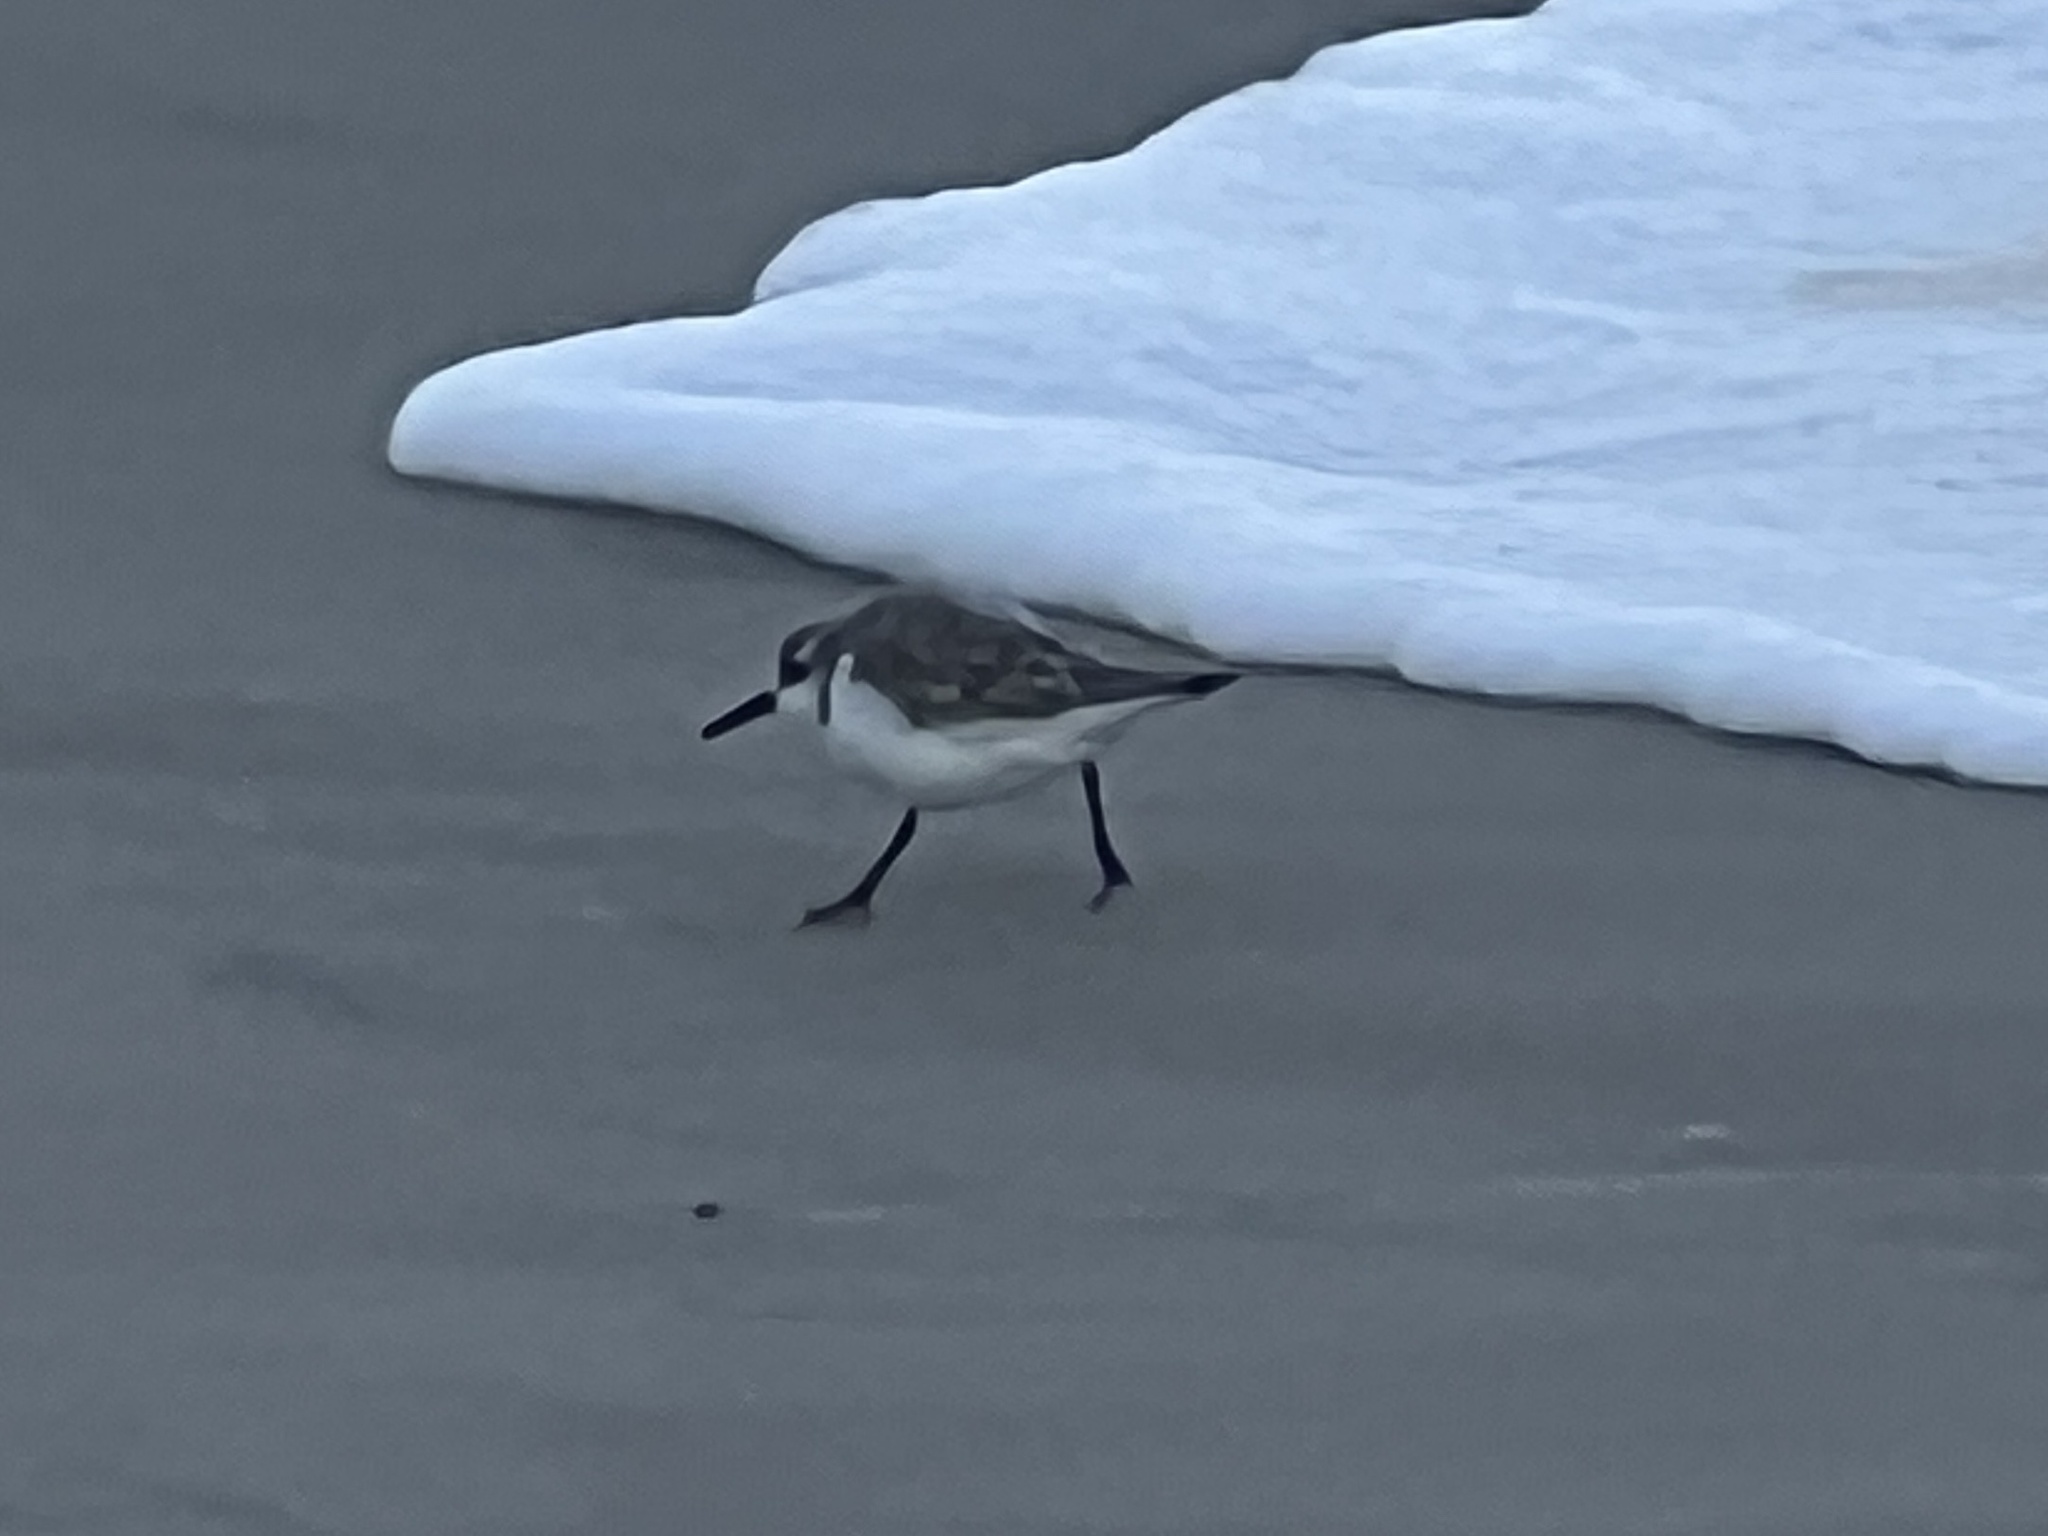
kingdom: Animalia
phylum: Chordata
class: Aves
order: Charadriiformes
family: Scolopacidae
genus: Calidris
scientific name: Calidris alba
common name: Sanderling
